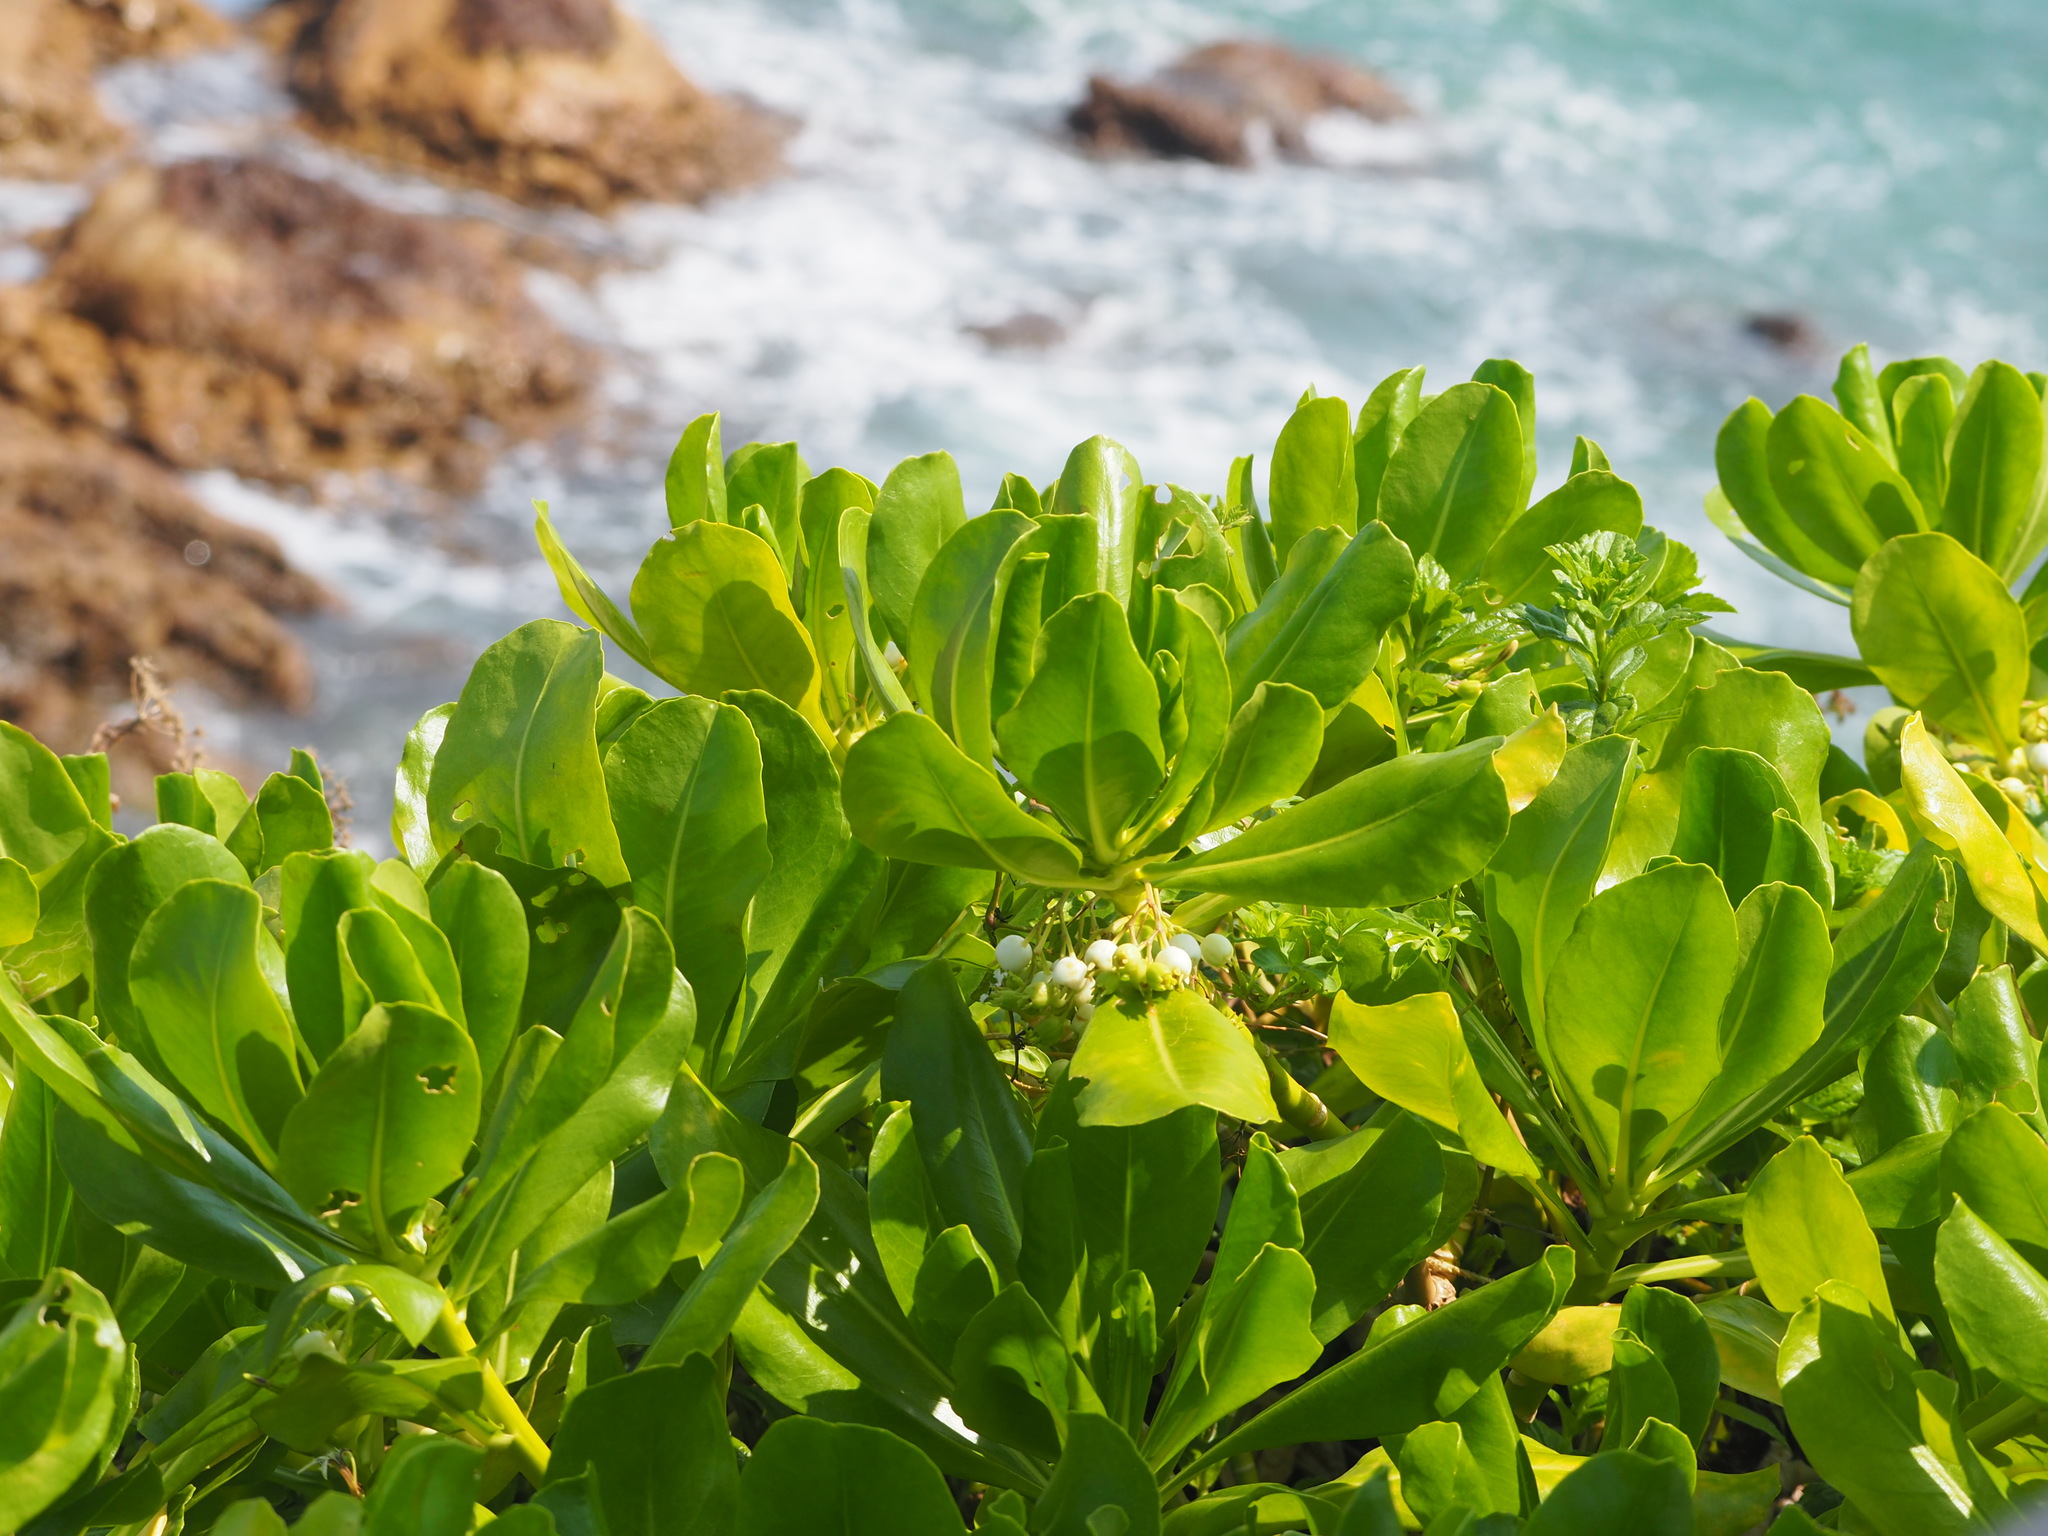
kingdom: Plantae
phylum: Tracheophyta
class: Magnoliopsida
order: Asterales
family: Goodeniaceae
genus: Scaevola
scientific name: Scaevola taccada
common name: Sea lettucetree
